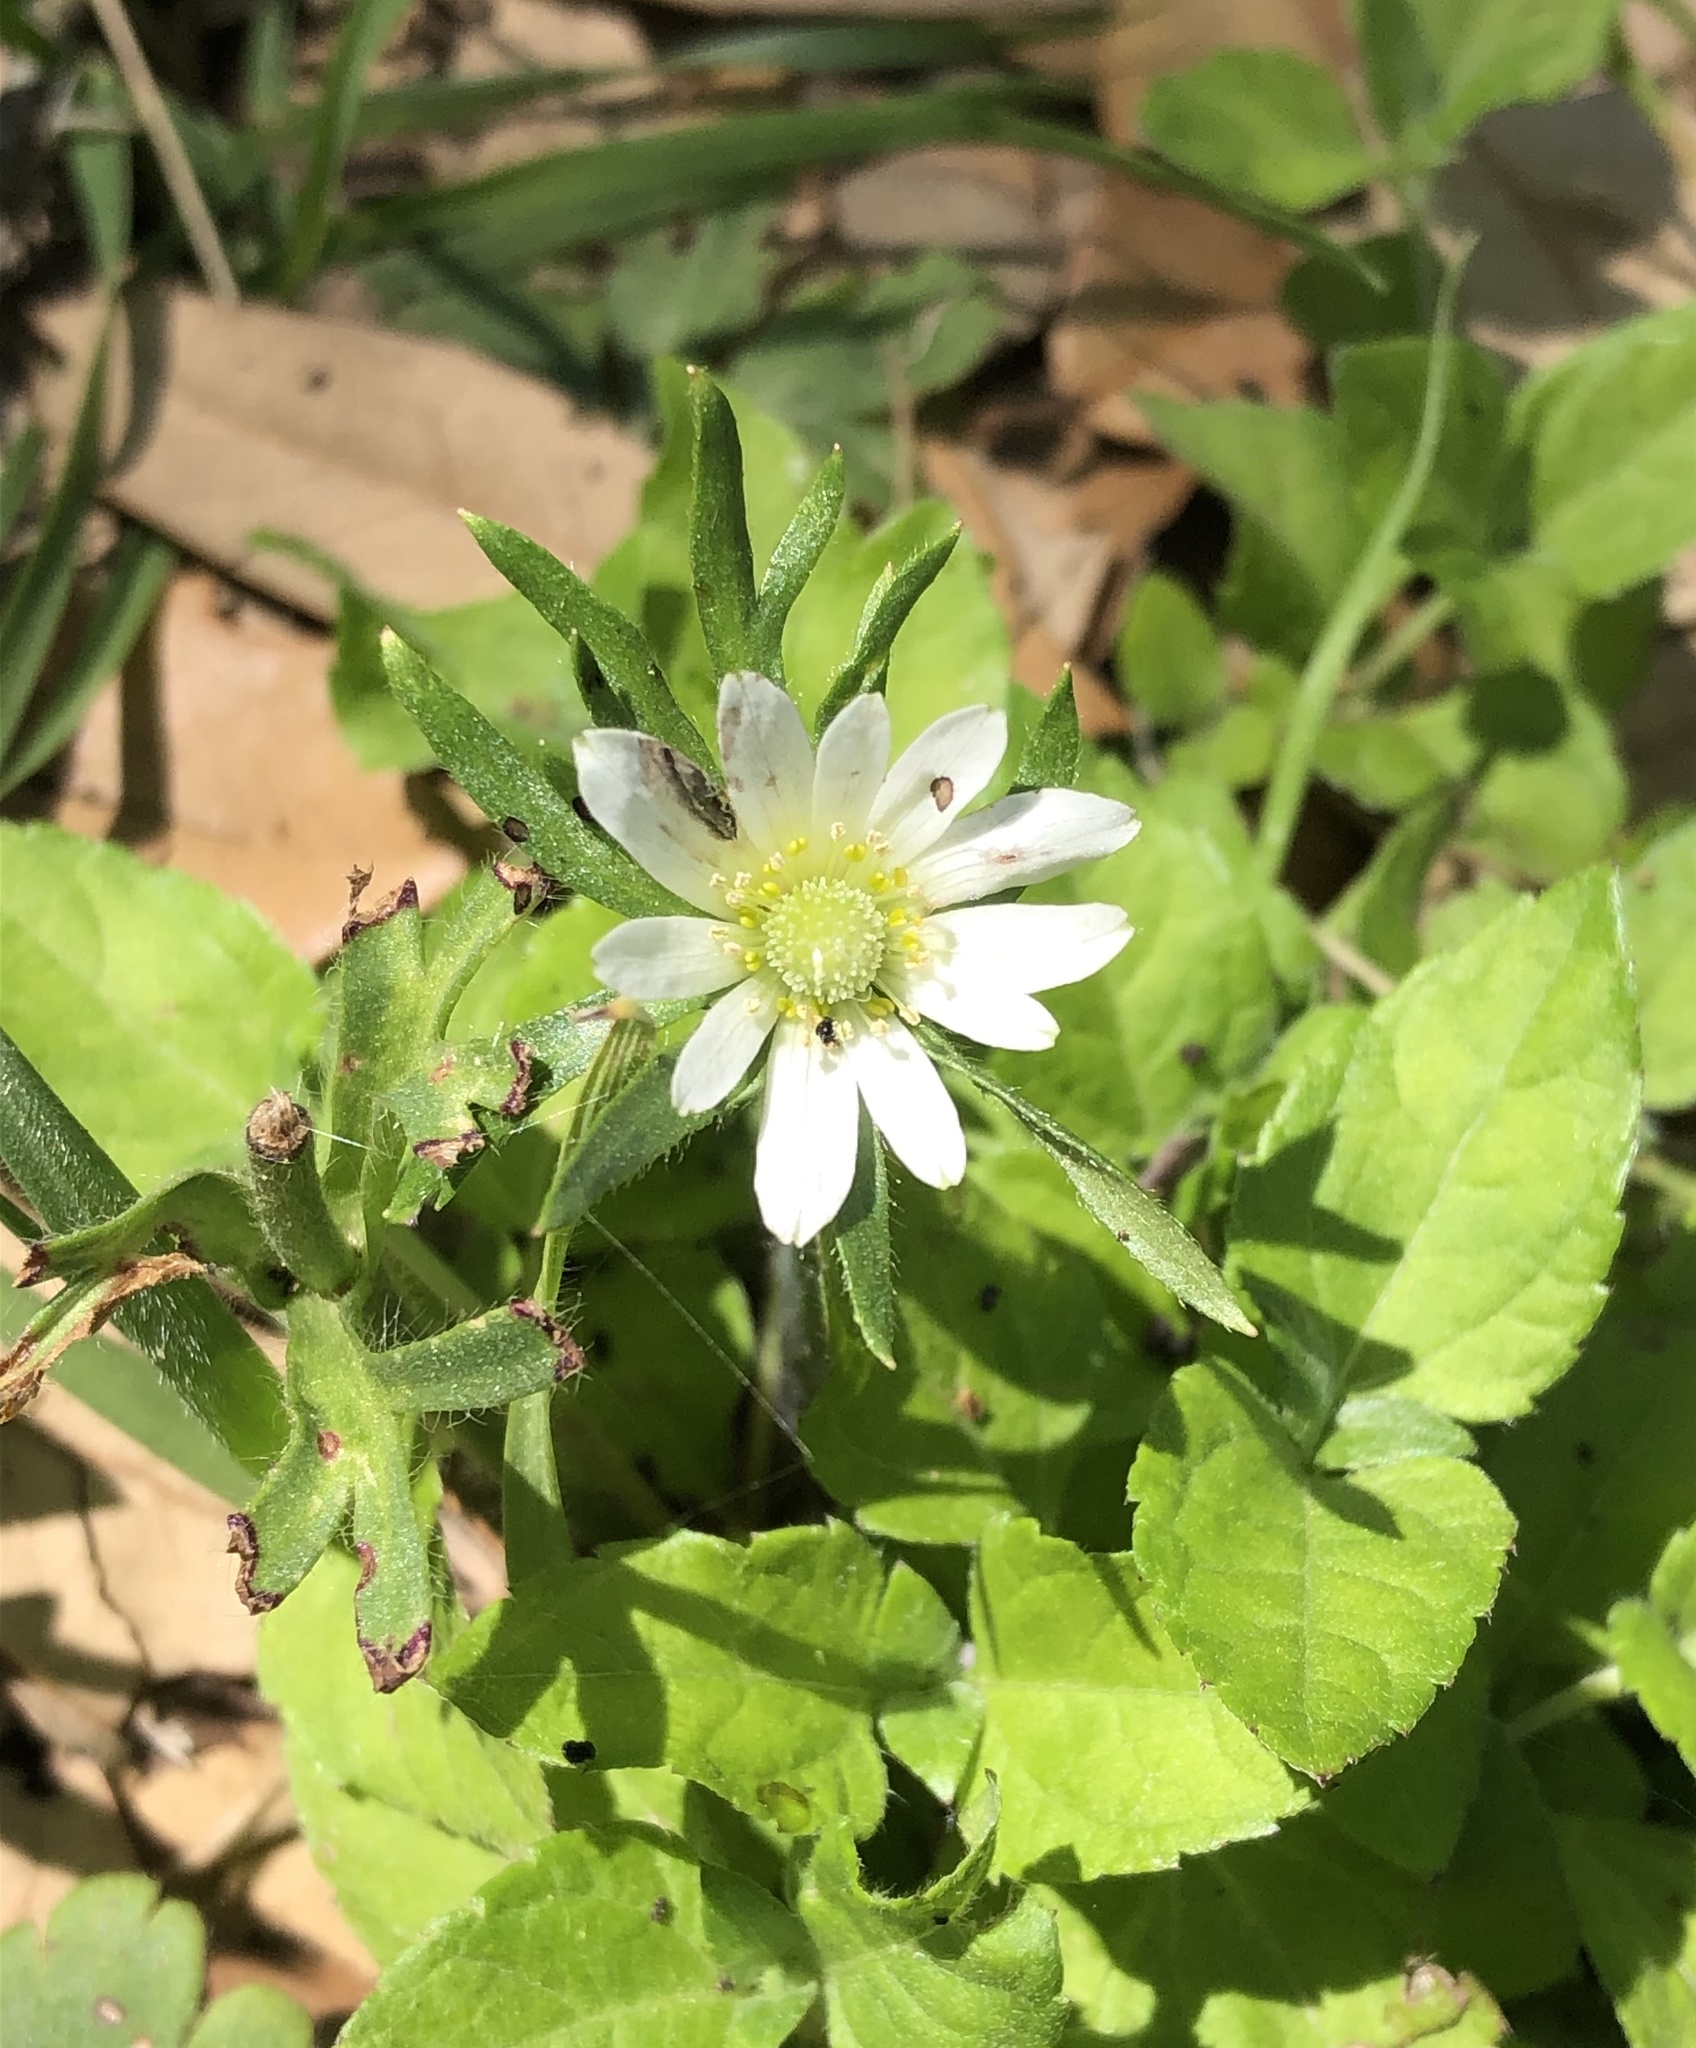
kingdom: Plantae
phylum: Tracheophyta
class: Magnoliopsida
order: Ranunculales
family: Ranunculaceae
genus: Anemone
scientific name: Anemone berlandieri
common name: Ten-petal anemone
